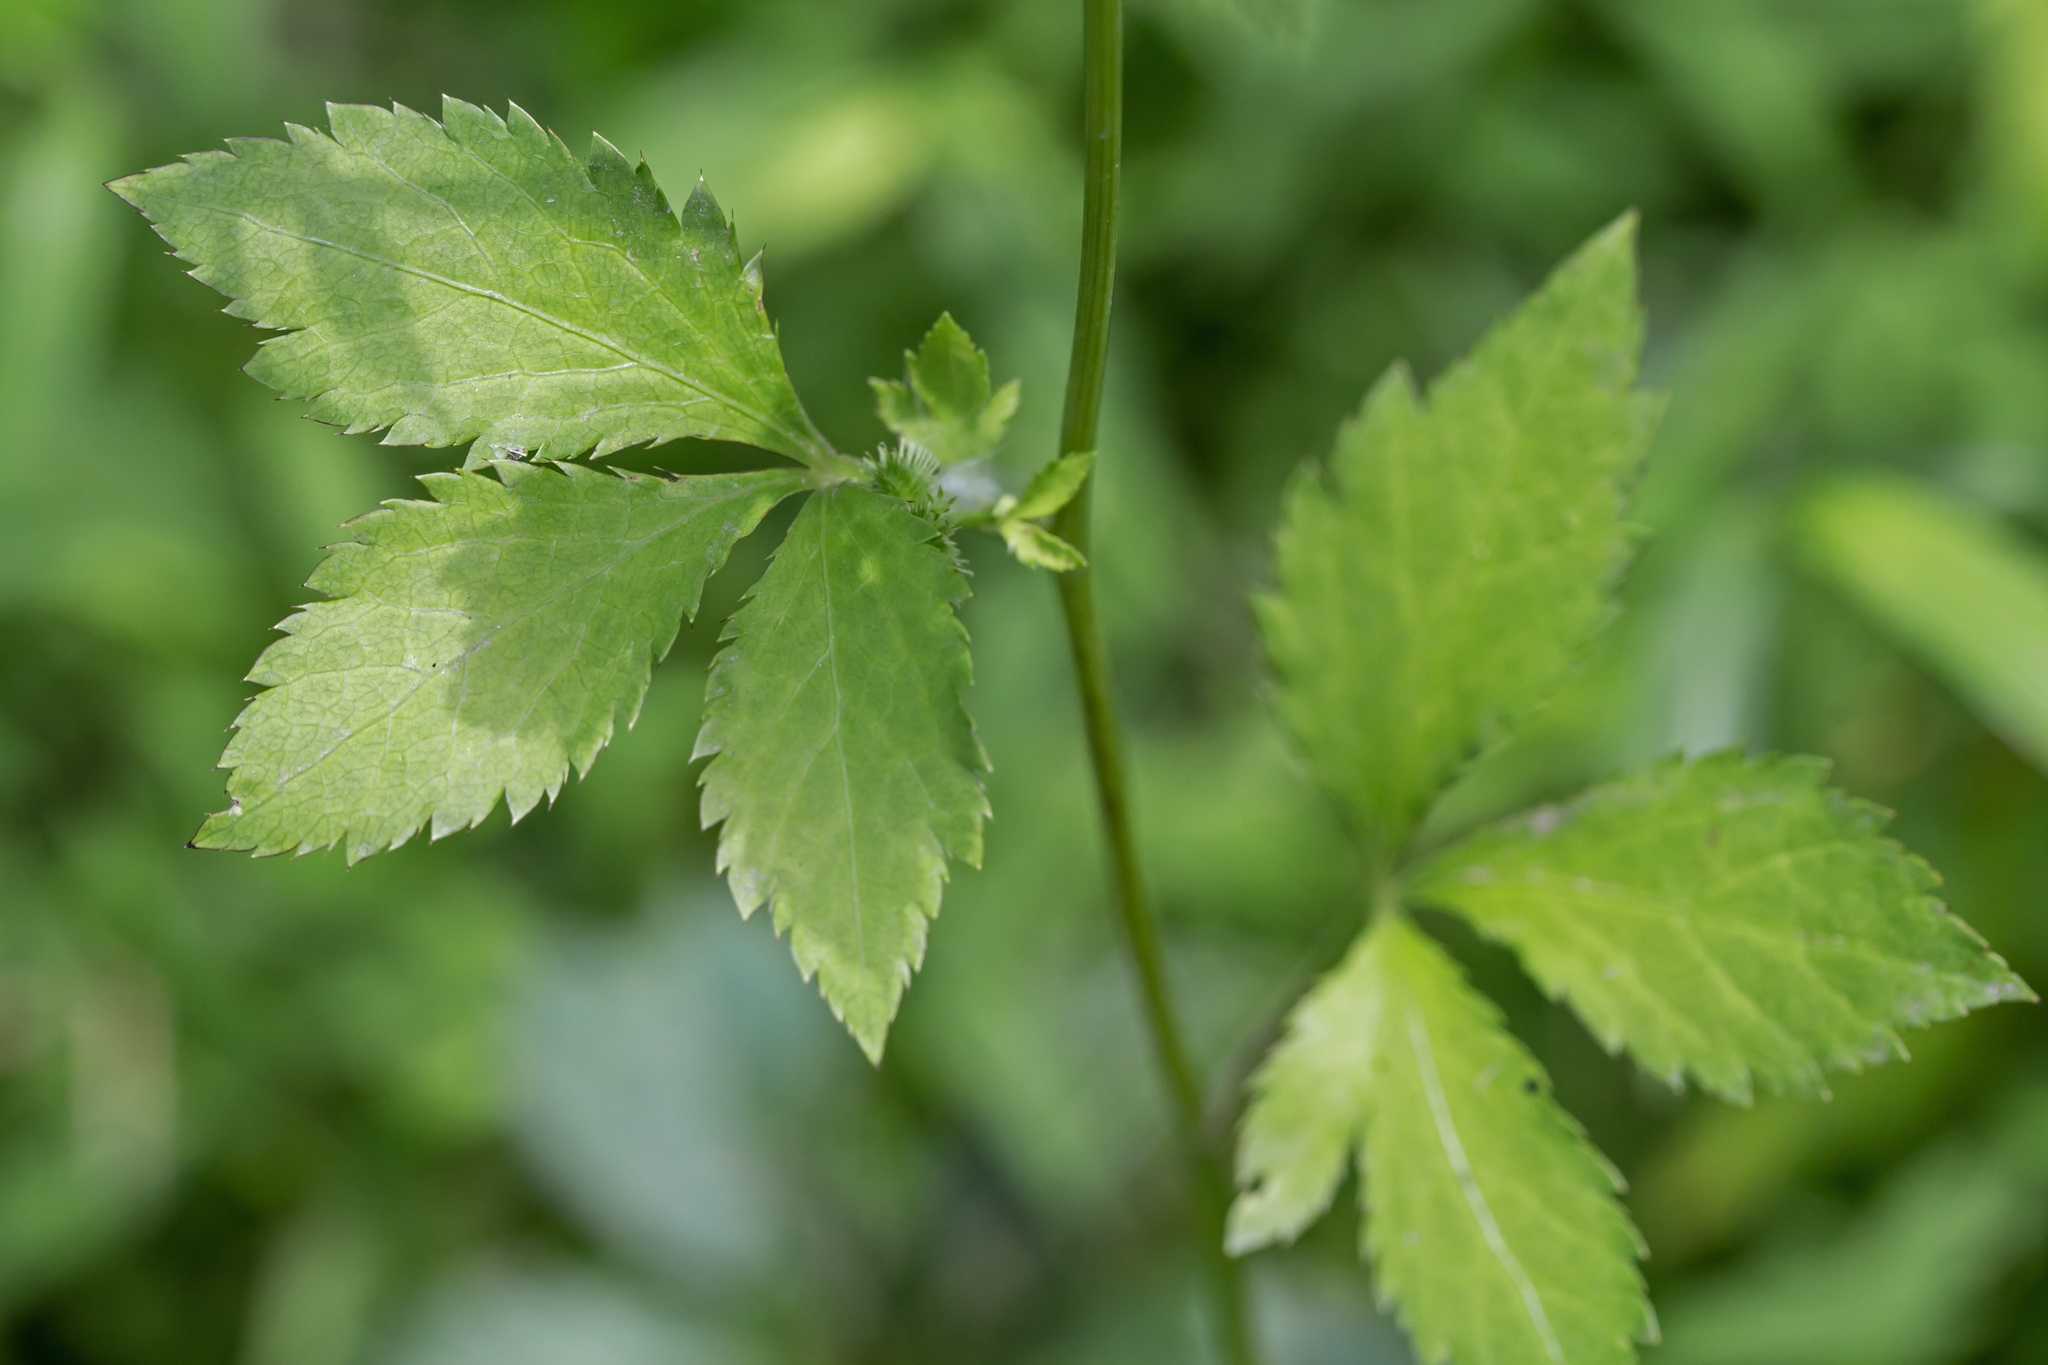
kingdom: Plantae
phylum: Tracheophyta
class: Magnoliopsida
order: Apiales
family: Apiaceae
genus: Sanicula
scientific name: Sanicula canadensis
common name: Canada sanicle
